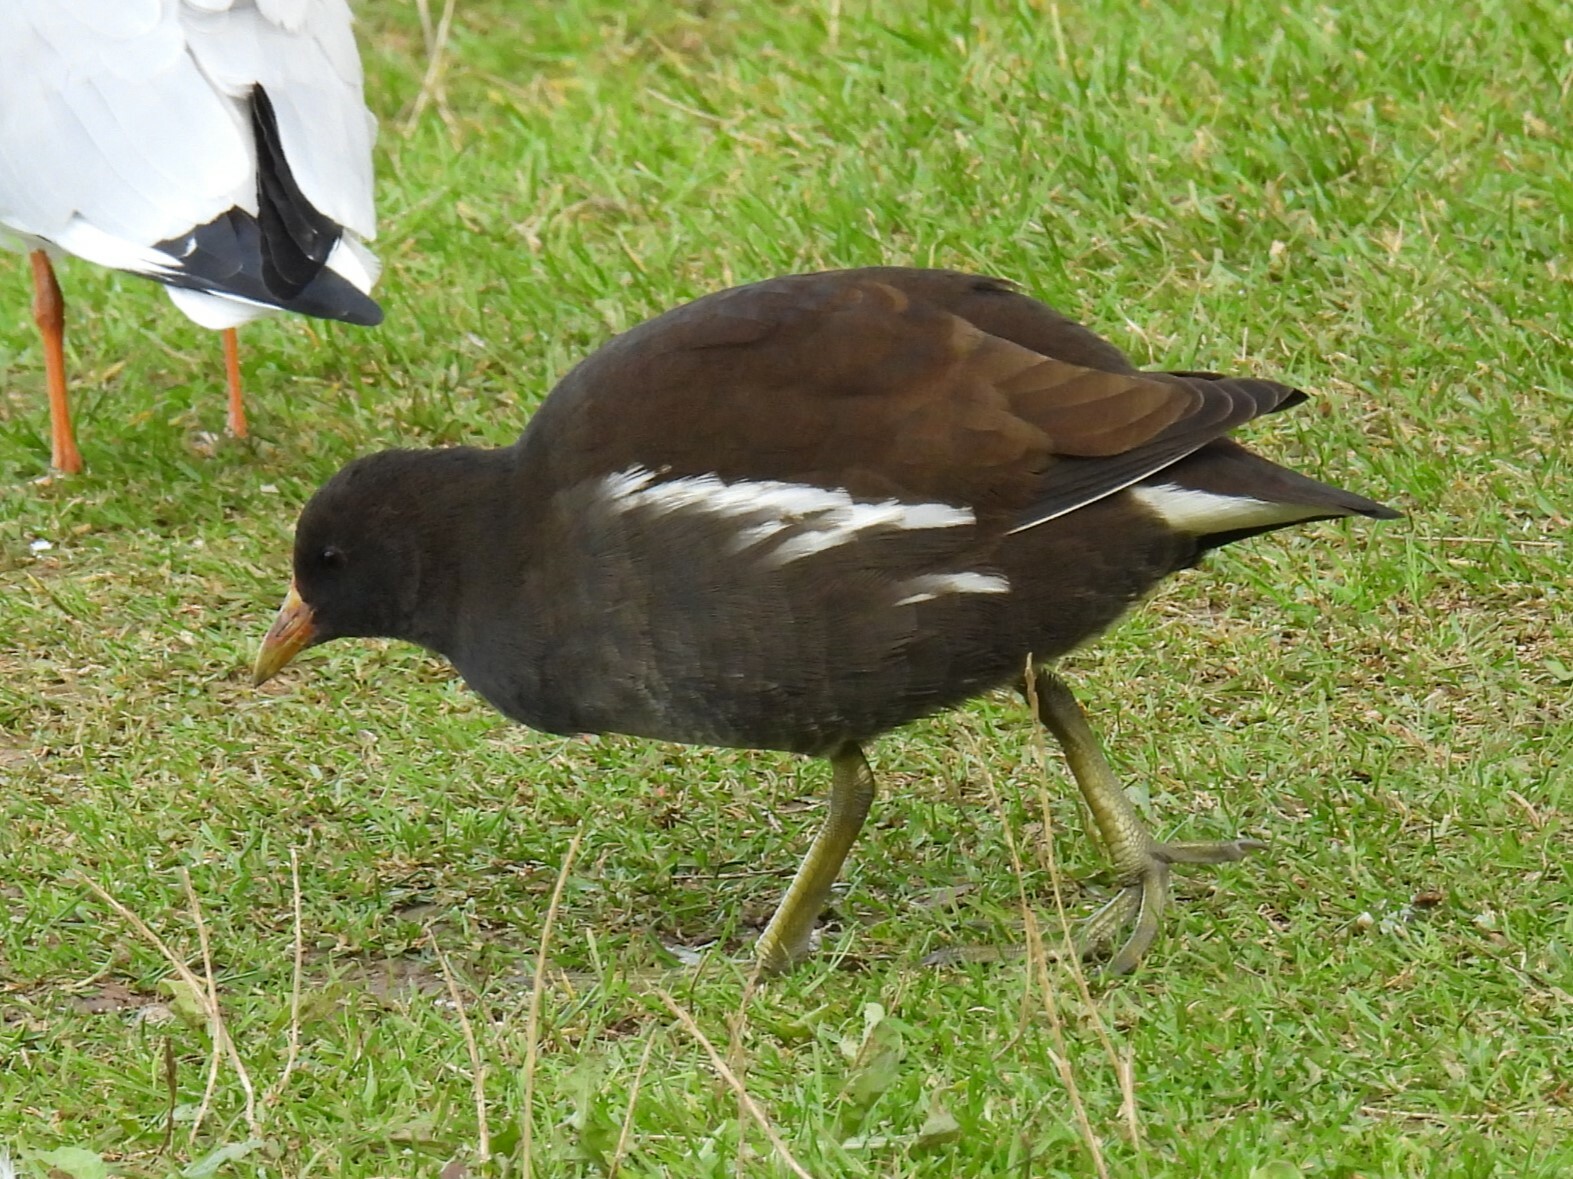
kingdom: Animalia
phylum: Chordata
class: Aves
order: Gruiformes
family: Rallidae
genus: Gallinula
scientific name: Gallinula chloropus
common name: Common moorhen
